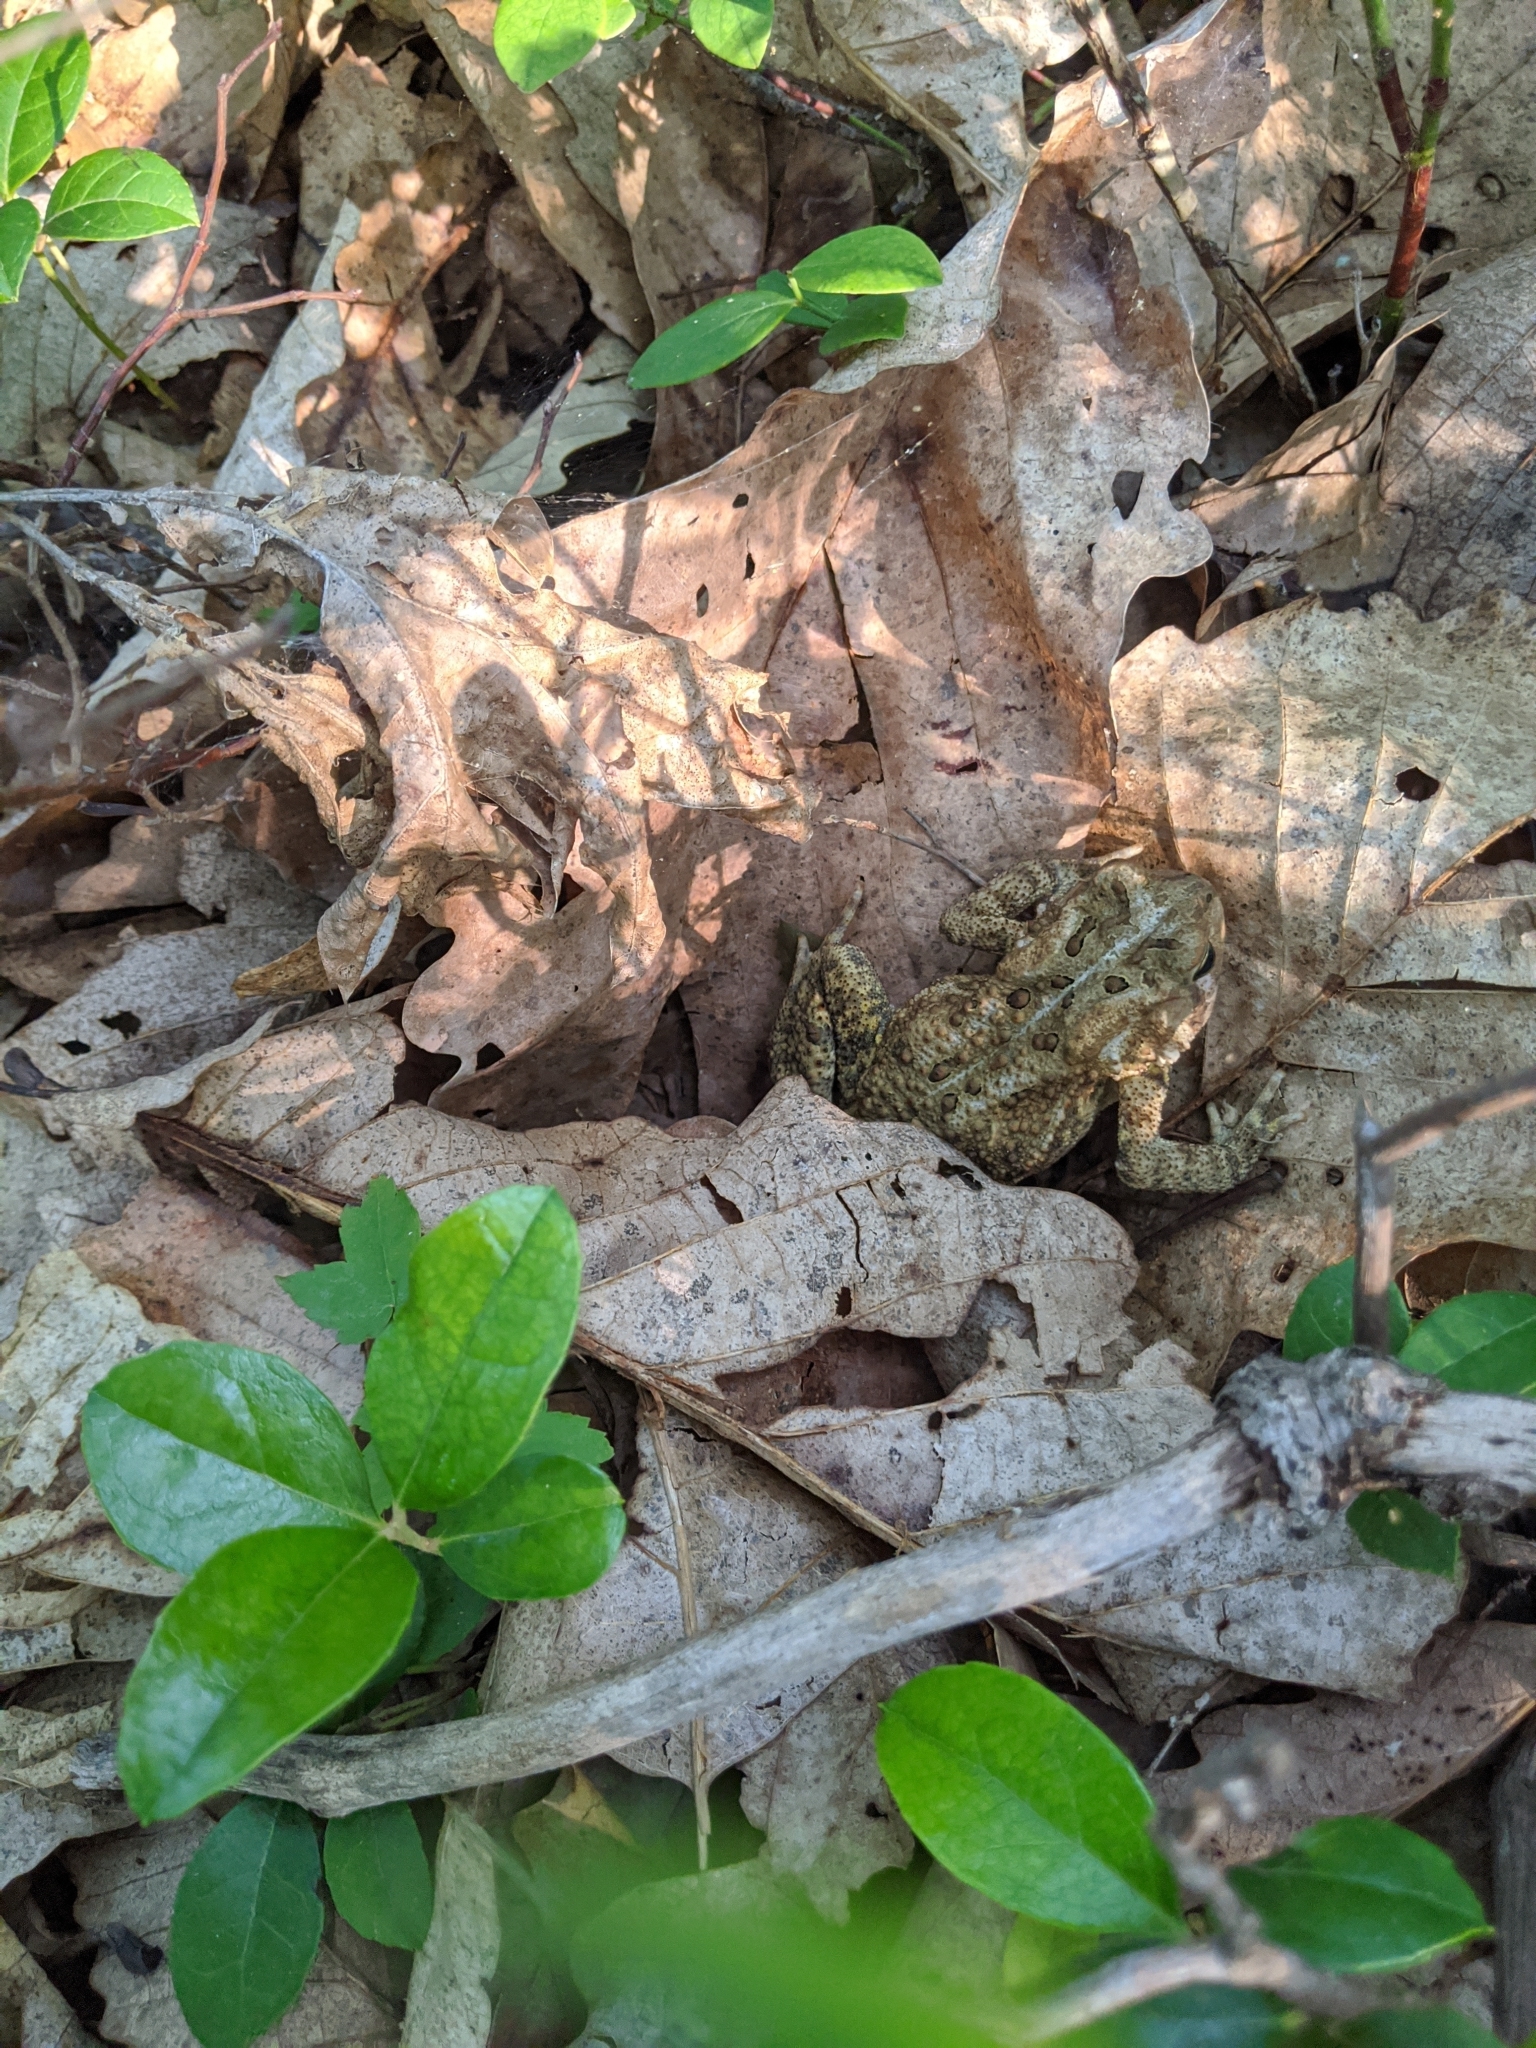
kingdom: Animalia
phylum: Chordata
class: Amphibia
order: Anura
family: Bufonidae
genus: Anaxyrus
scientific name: Anaxyrus americanus
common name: American toad
